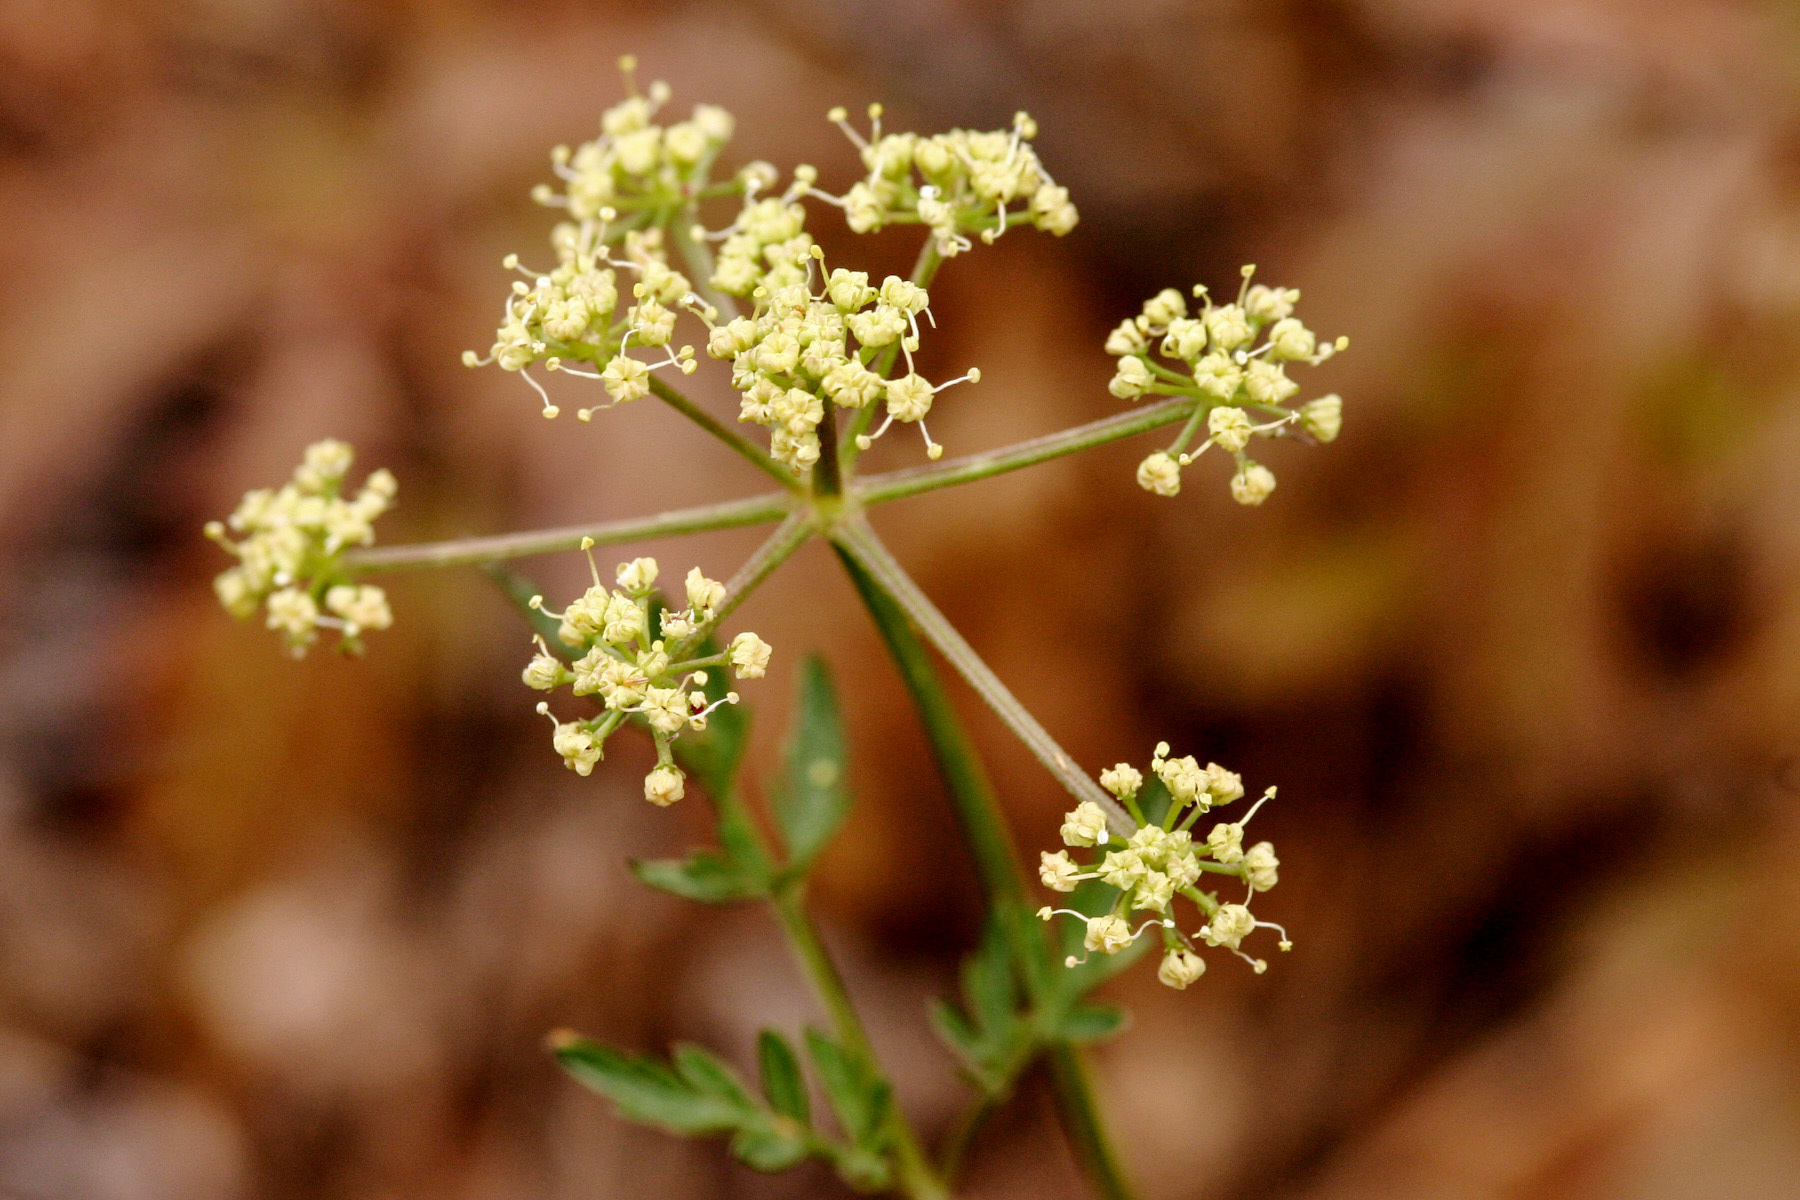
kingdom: Plantae
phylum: Tracheophyta
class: Magnoliopsida
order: Apiales
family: Apiaceae
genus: Pseudocymopterus
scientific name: Pseudocymopterus longiradiatus
